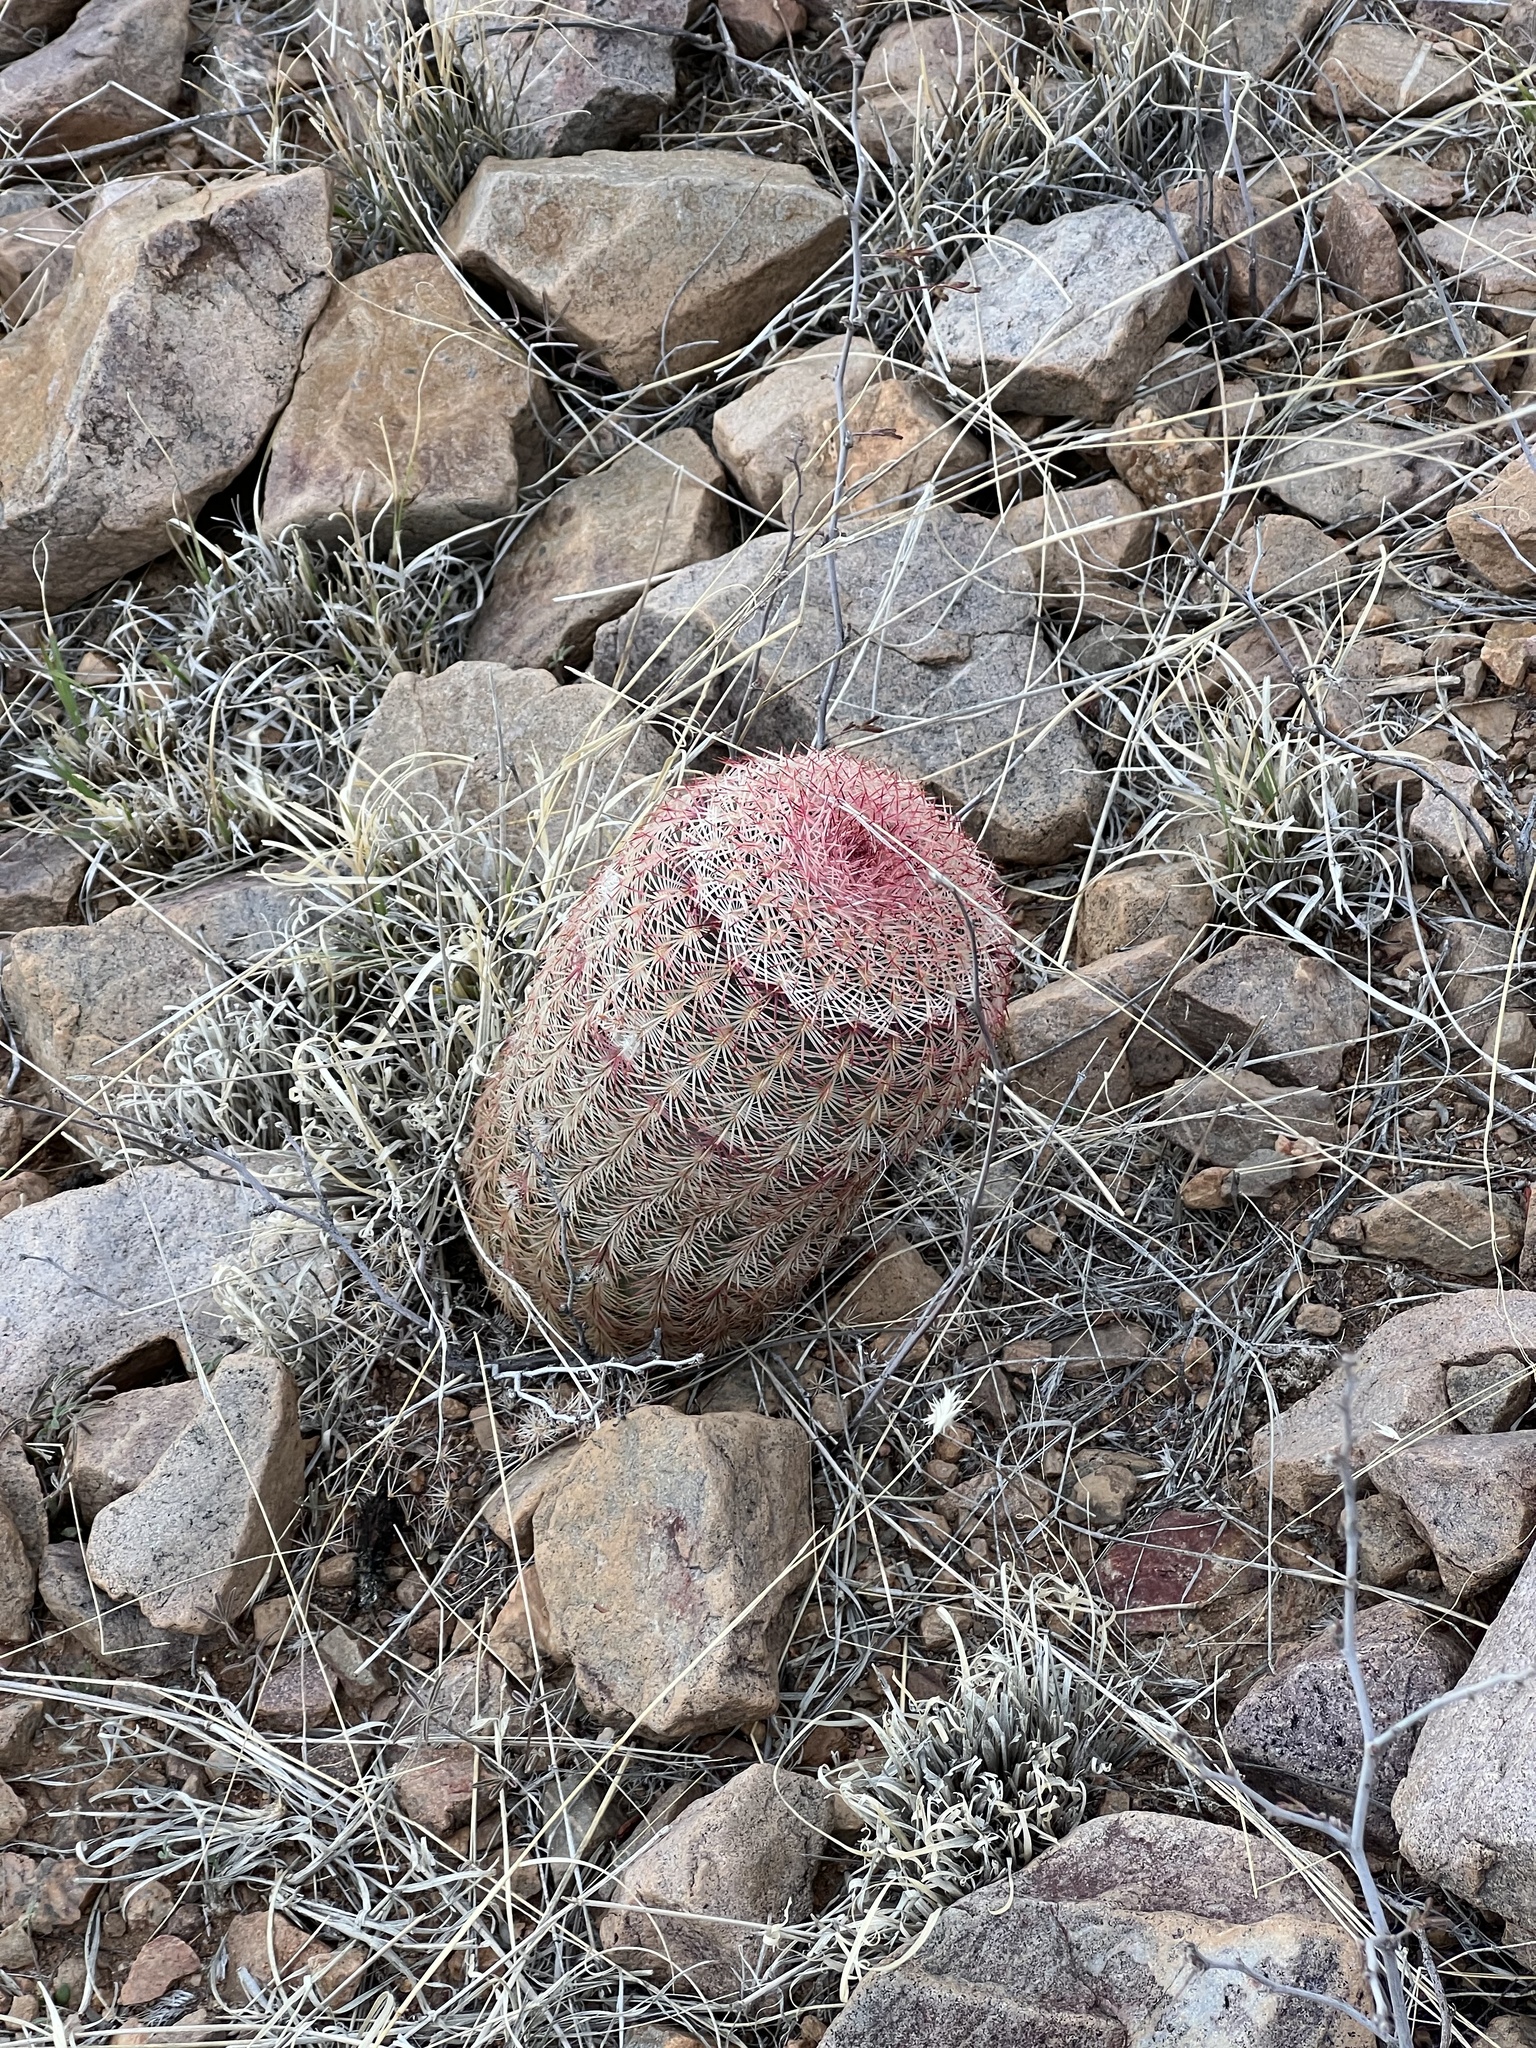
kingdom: Plantae
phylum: Tracheophyta
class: Magnoliopsida
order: Caryophyllales
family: Cactaceae
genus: Echinocereus
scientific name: Echinocereus rigidissimus
